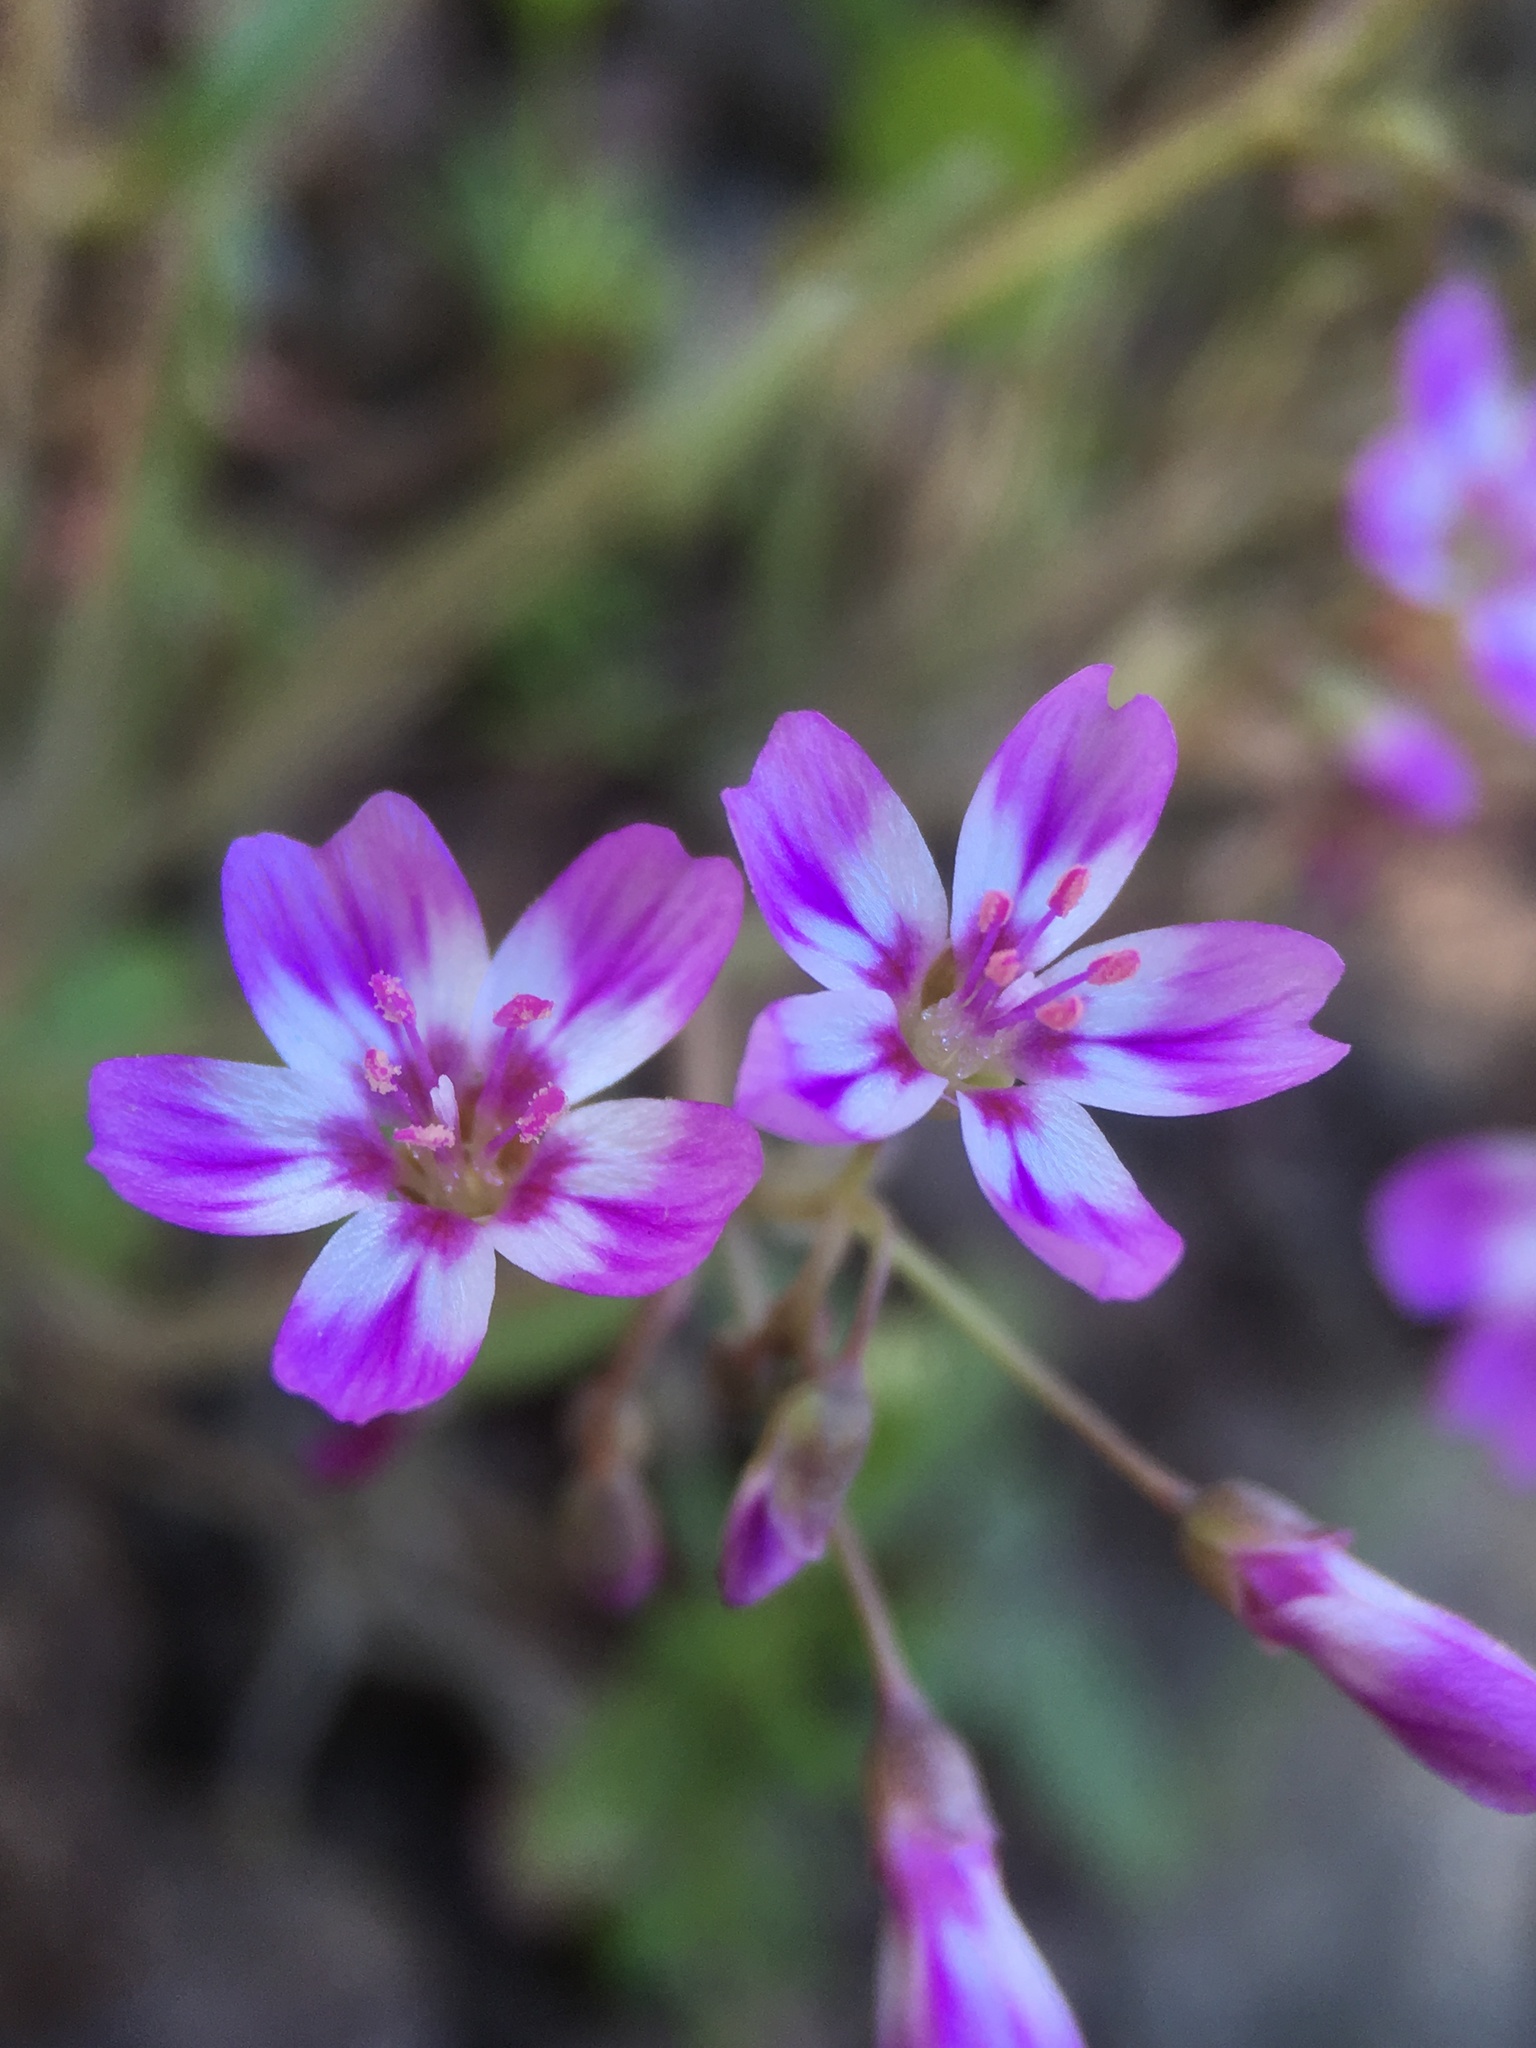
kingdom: Plantae
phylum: Tracheophyta
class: Magnoliopsida
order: Caryophyllales
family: Montiaceae
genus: Claytonia
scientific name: Claytonia gypsophiloides
